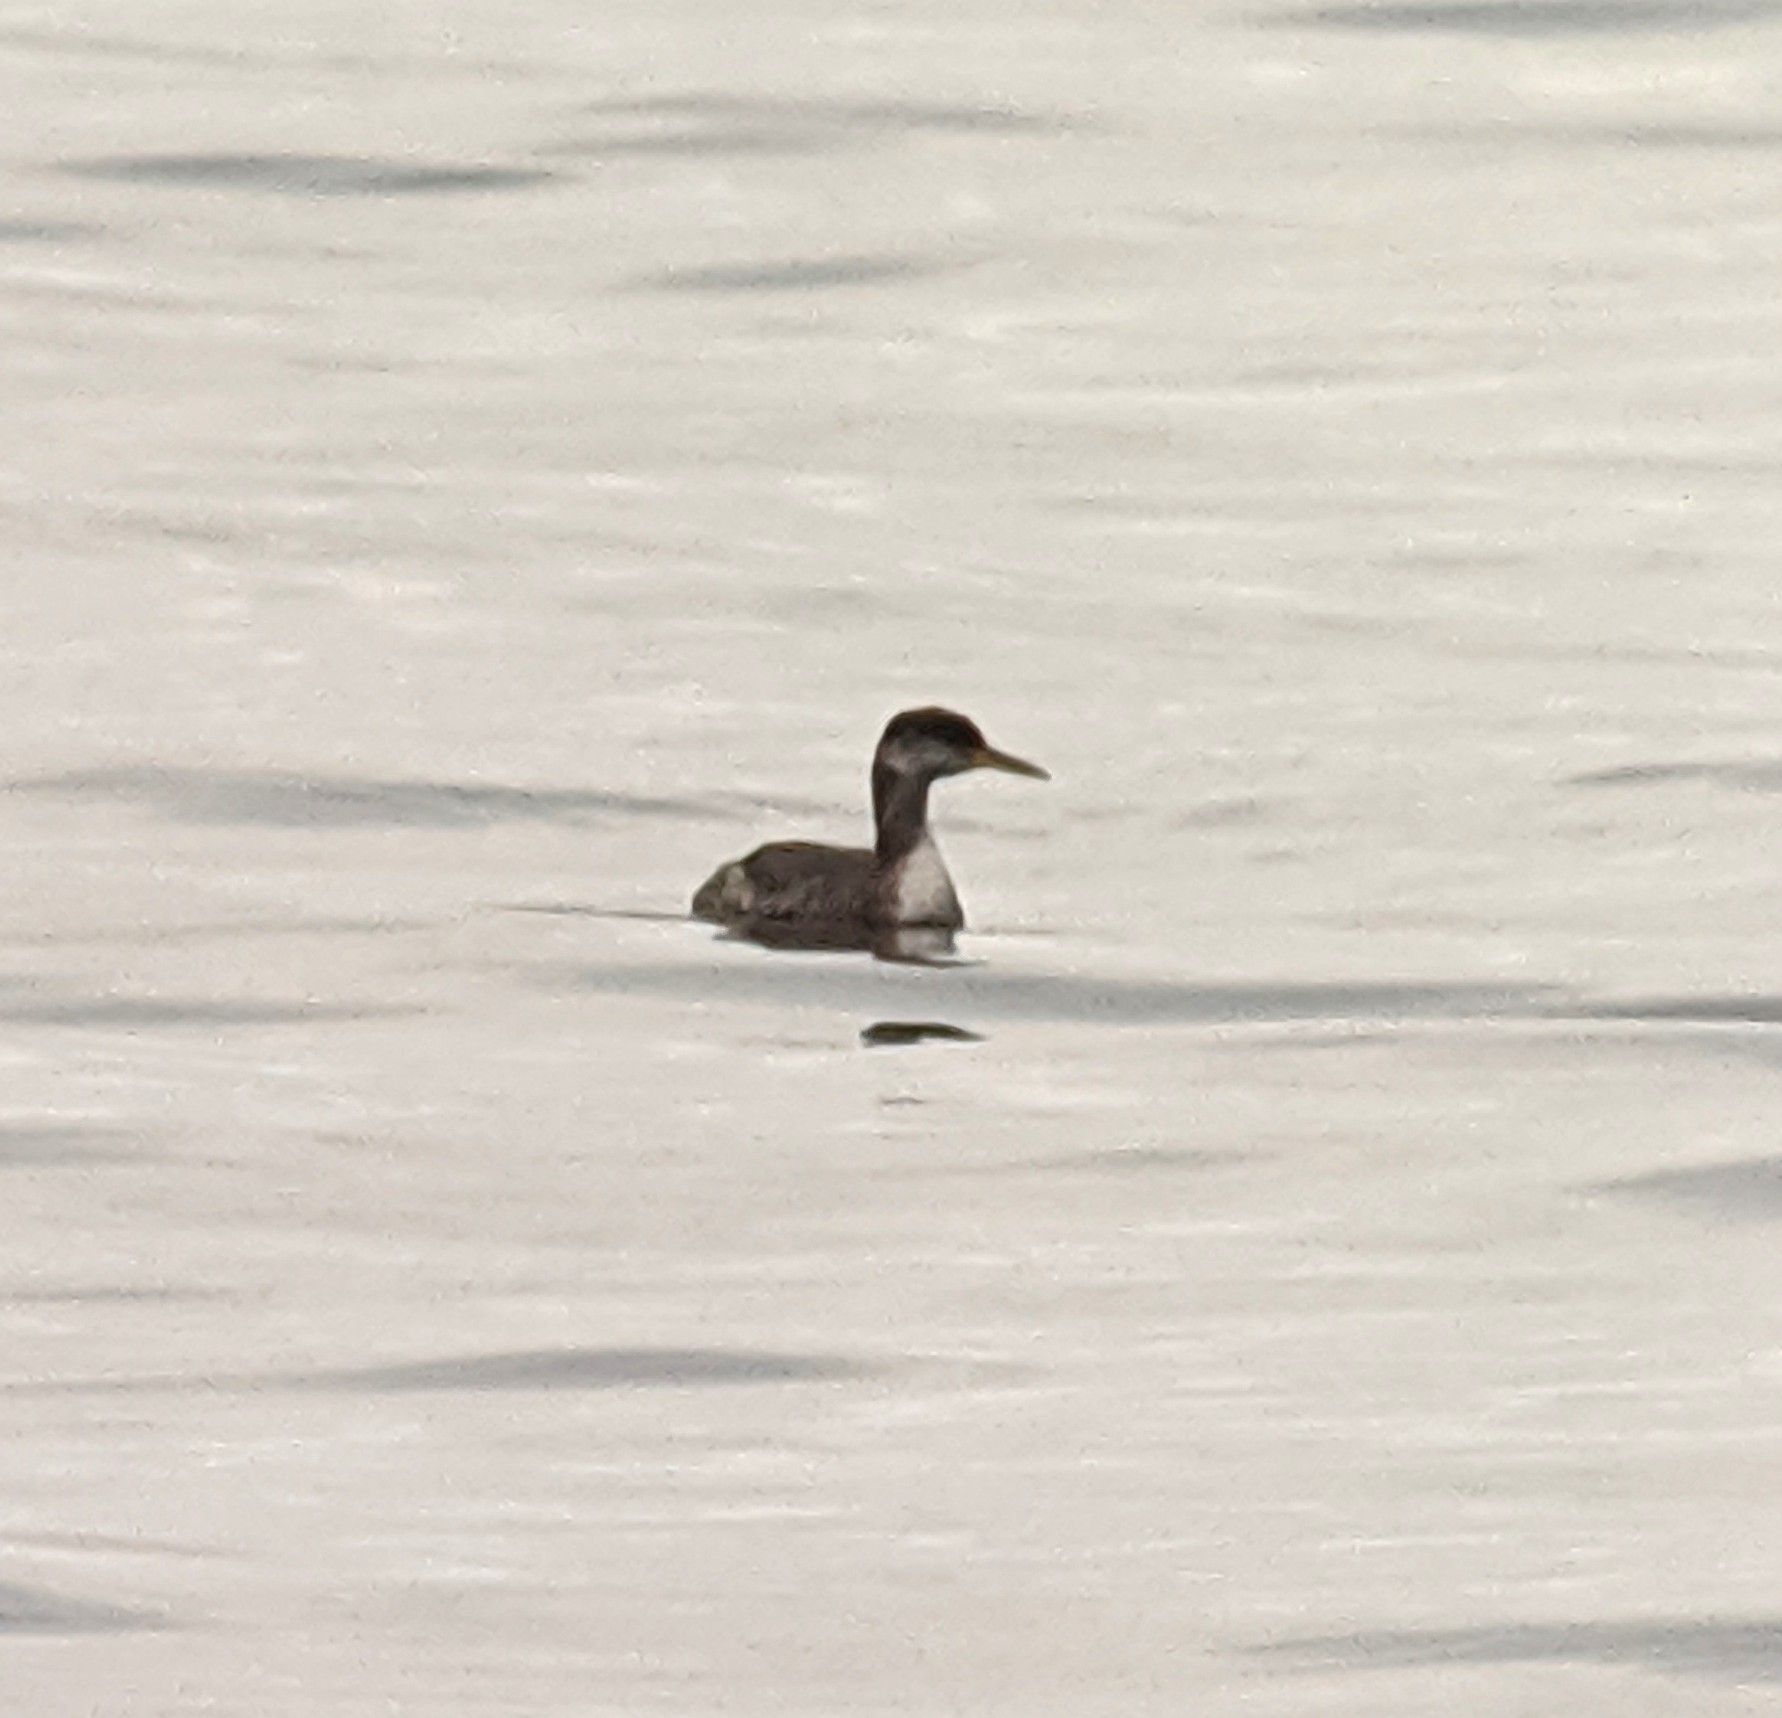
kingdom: Animalia
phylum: Chordata
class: Aves
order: Podicipediformes
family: Podicipedidae
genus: Podiceps
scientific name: Podiceps grisegena
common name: Red-necked grebe
